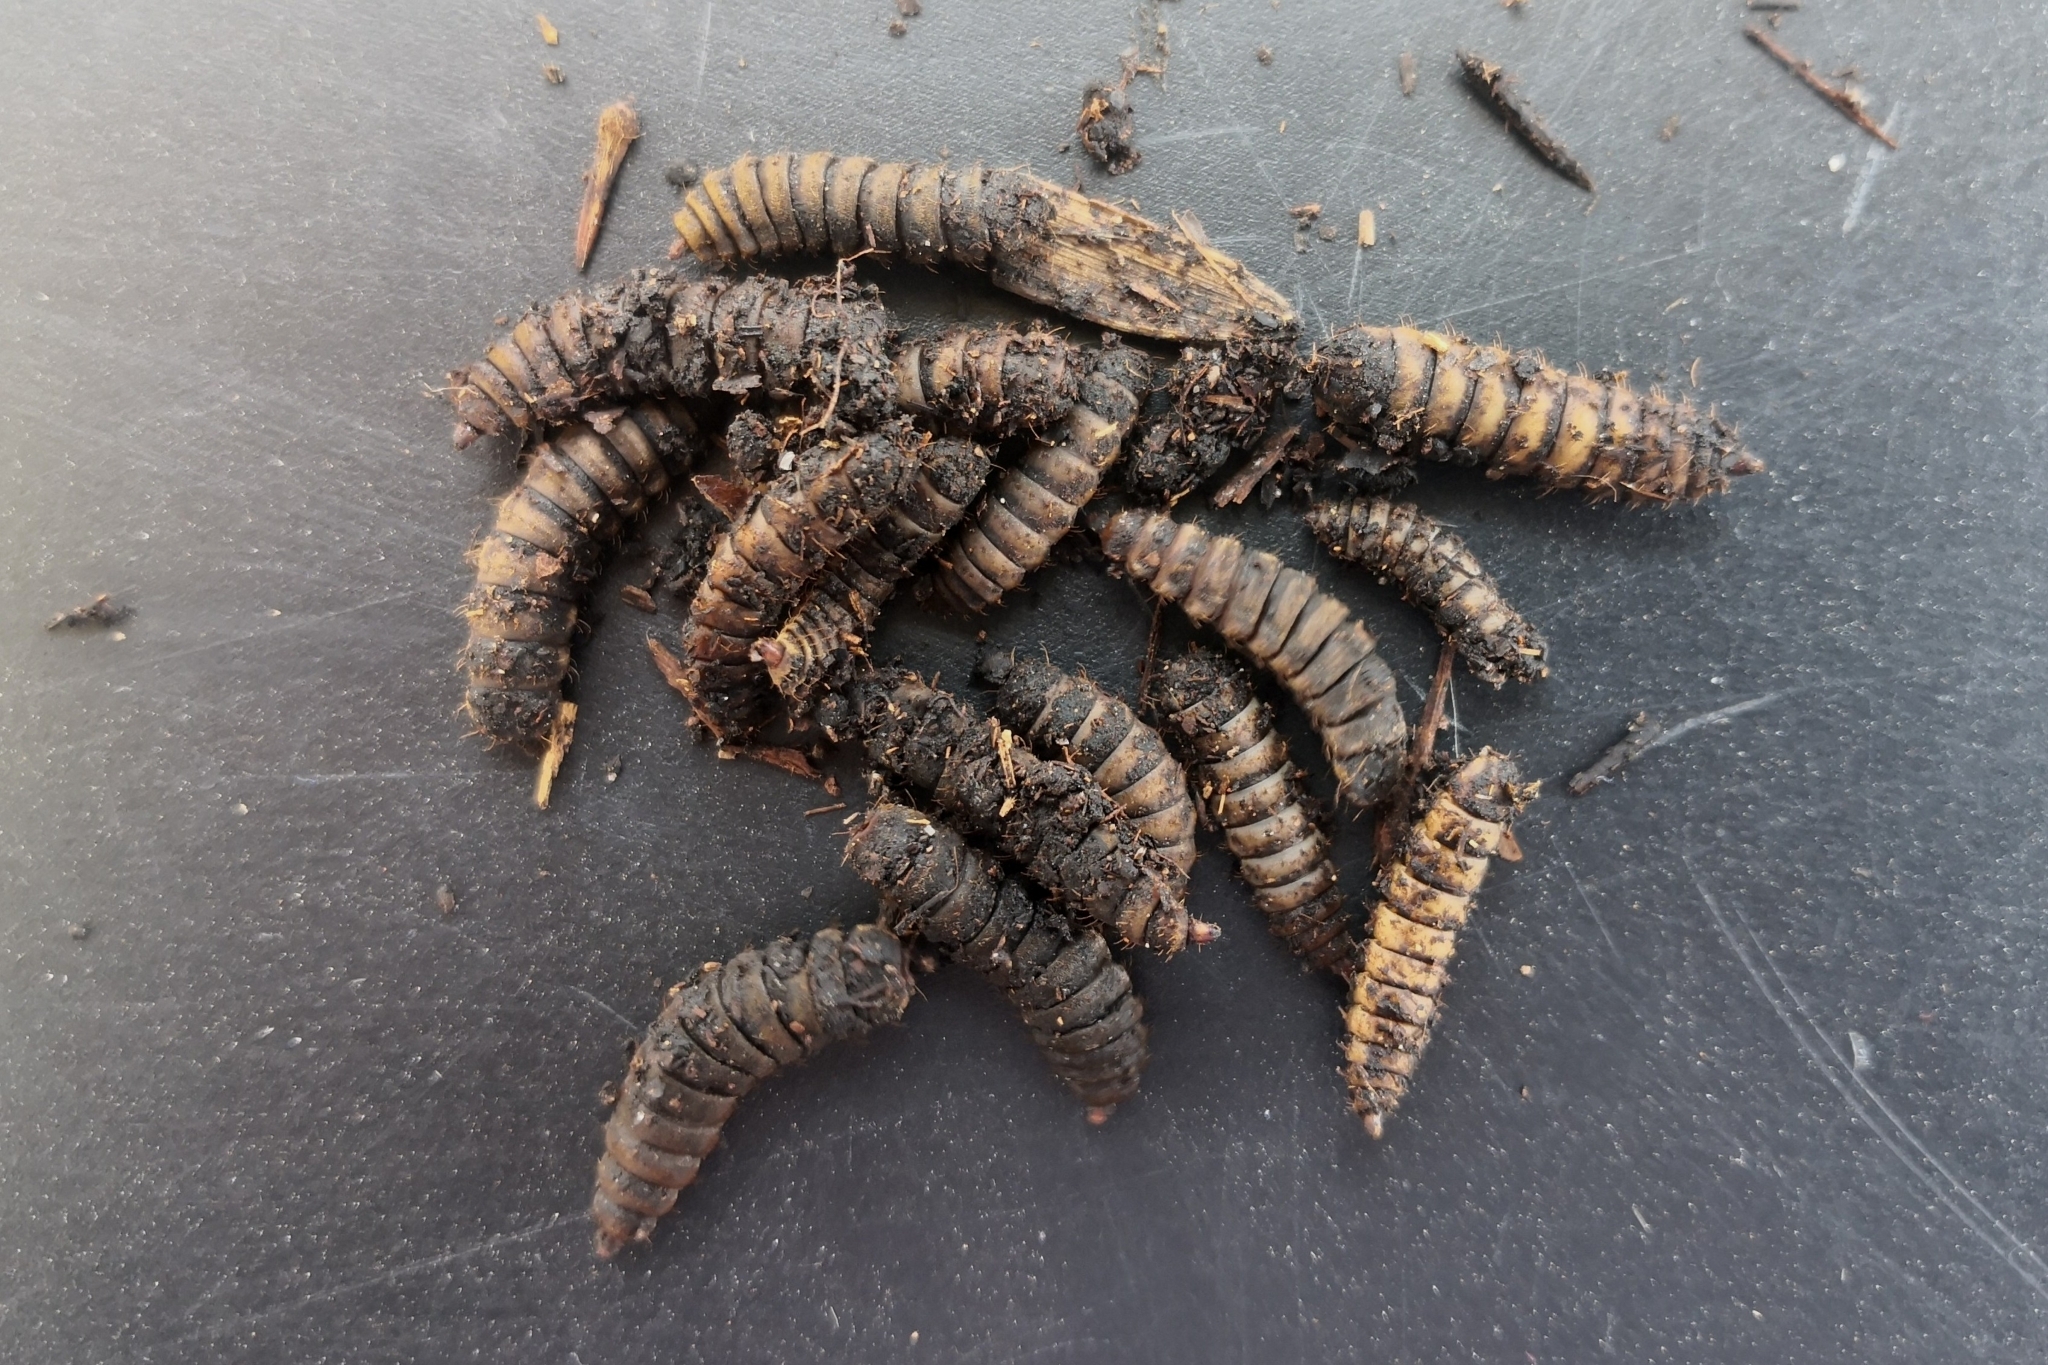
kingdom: Animalia
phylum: Arthropoda
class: Insecta
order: Diptera
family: Stratiomyidae
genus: Hermetia
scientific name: Hermetia illucens
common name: Black soldier fly
